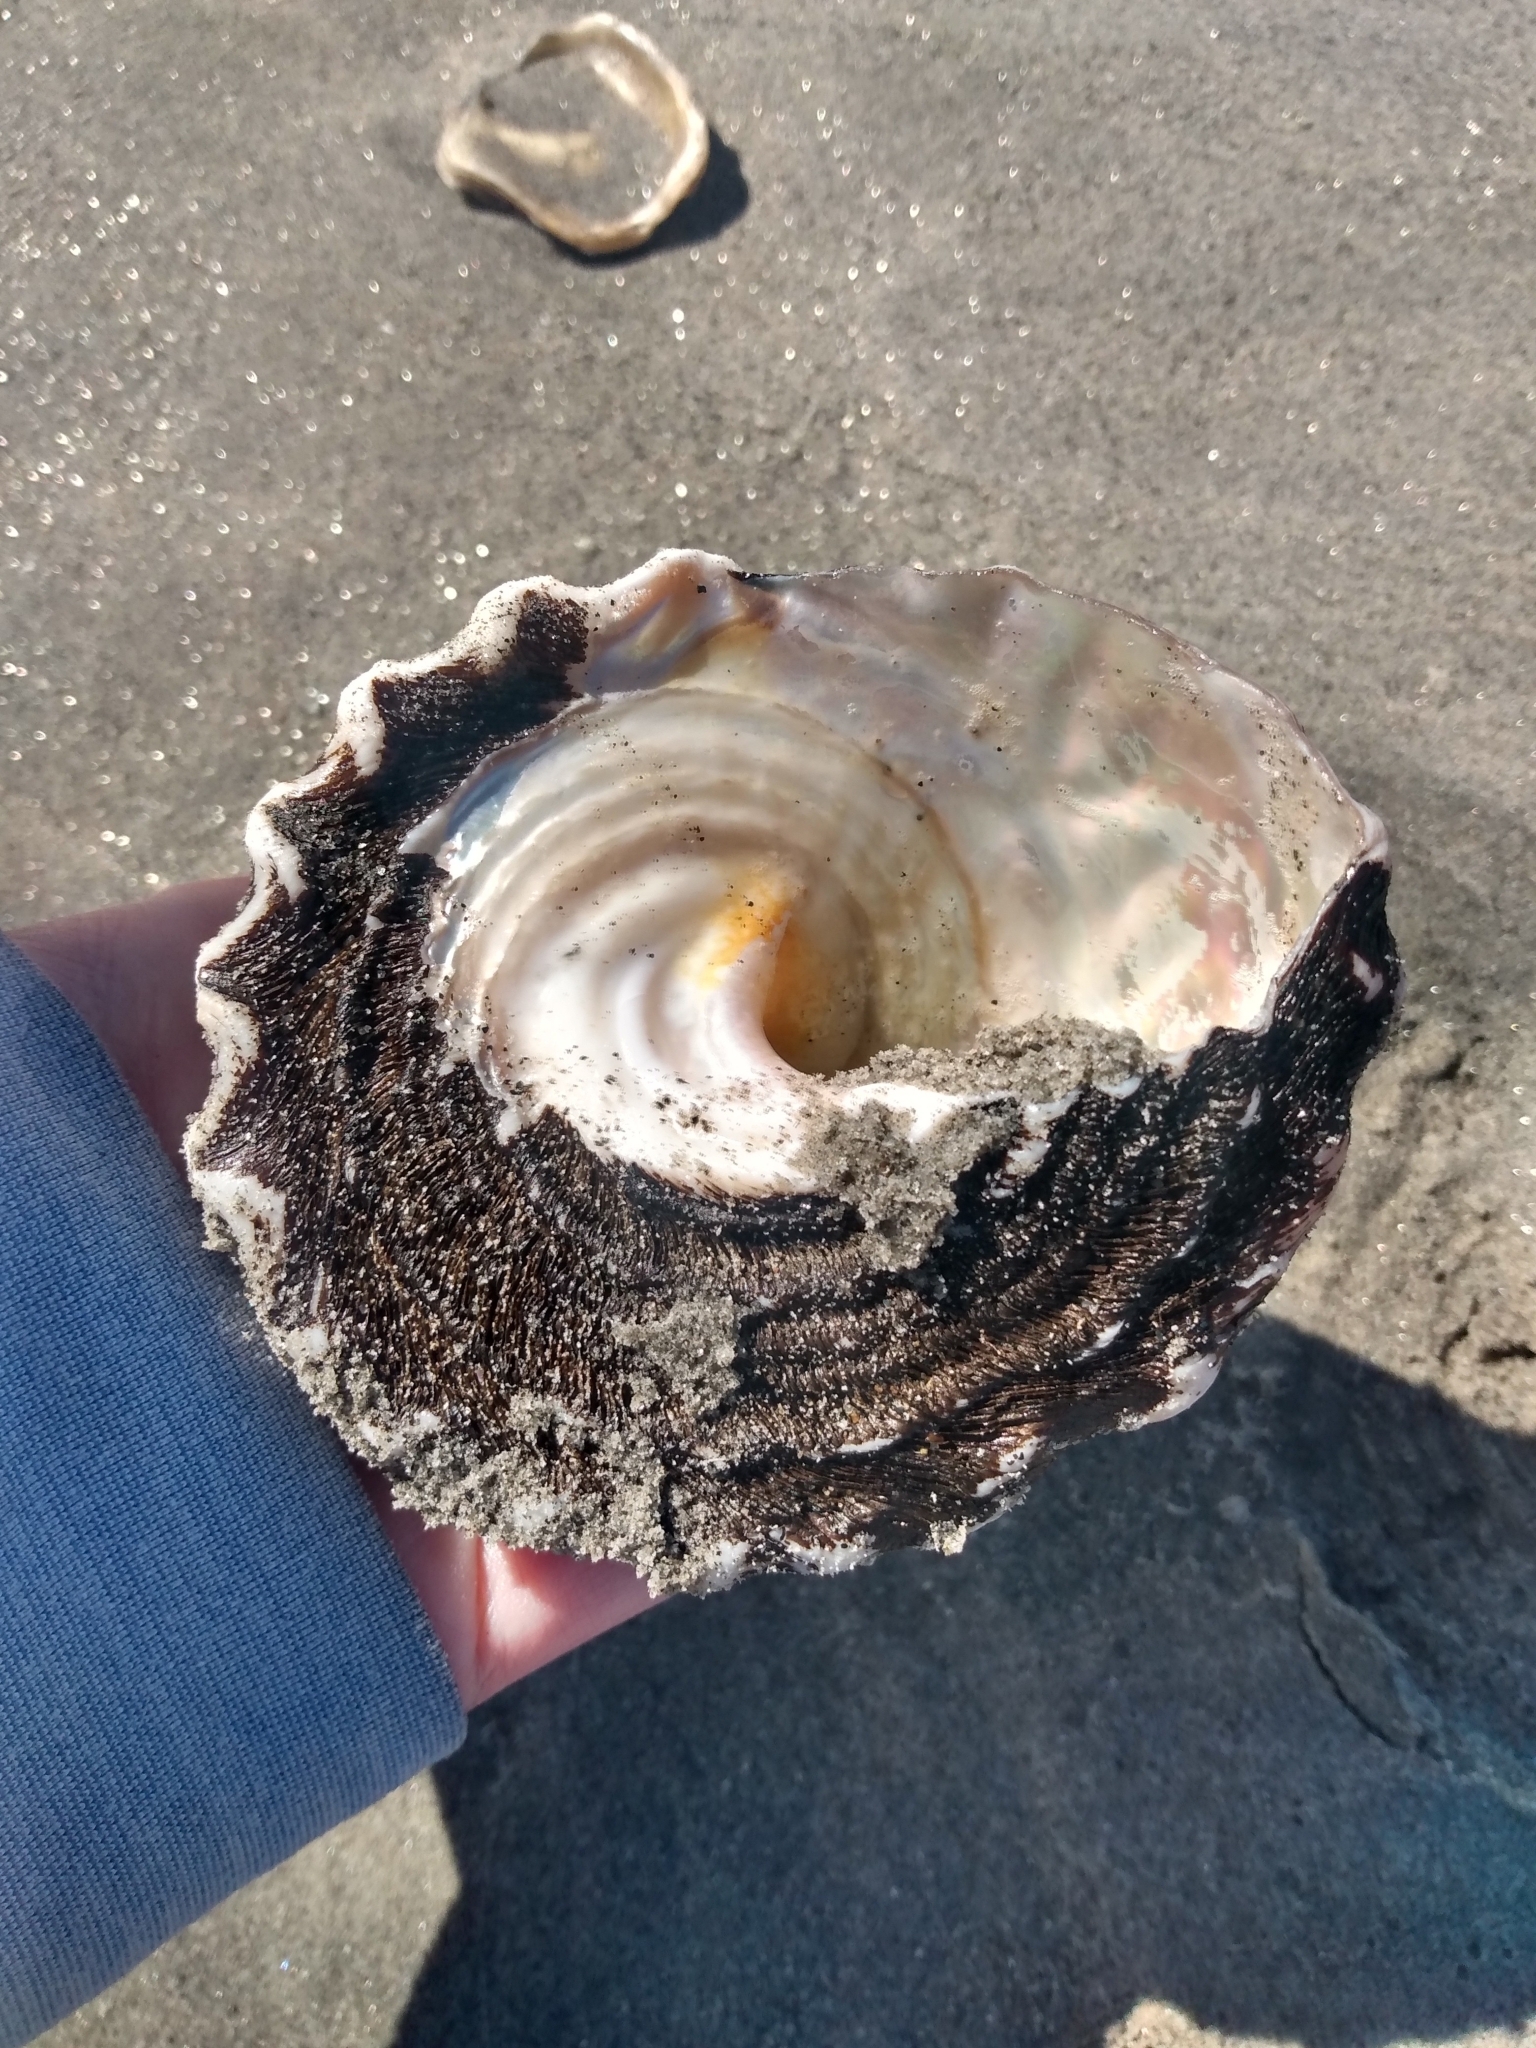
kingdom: Animalia
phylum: Mollusca
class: Gastropoda
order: Trochida
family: Turbinidae
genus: Megastraea
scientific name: Megastraea undosa
